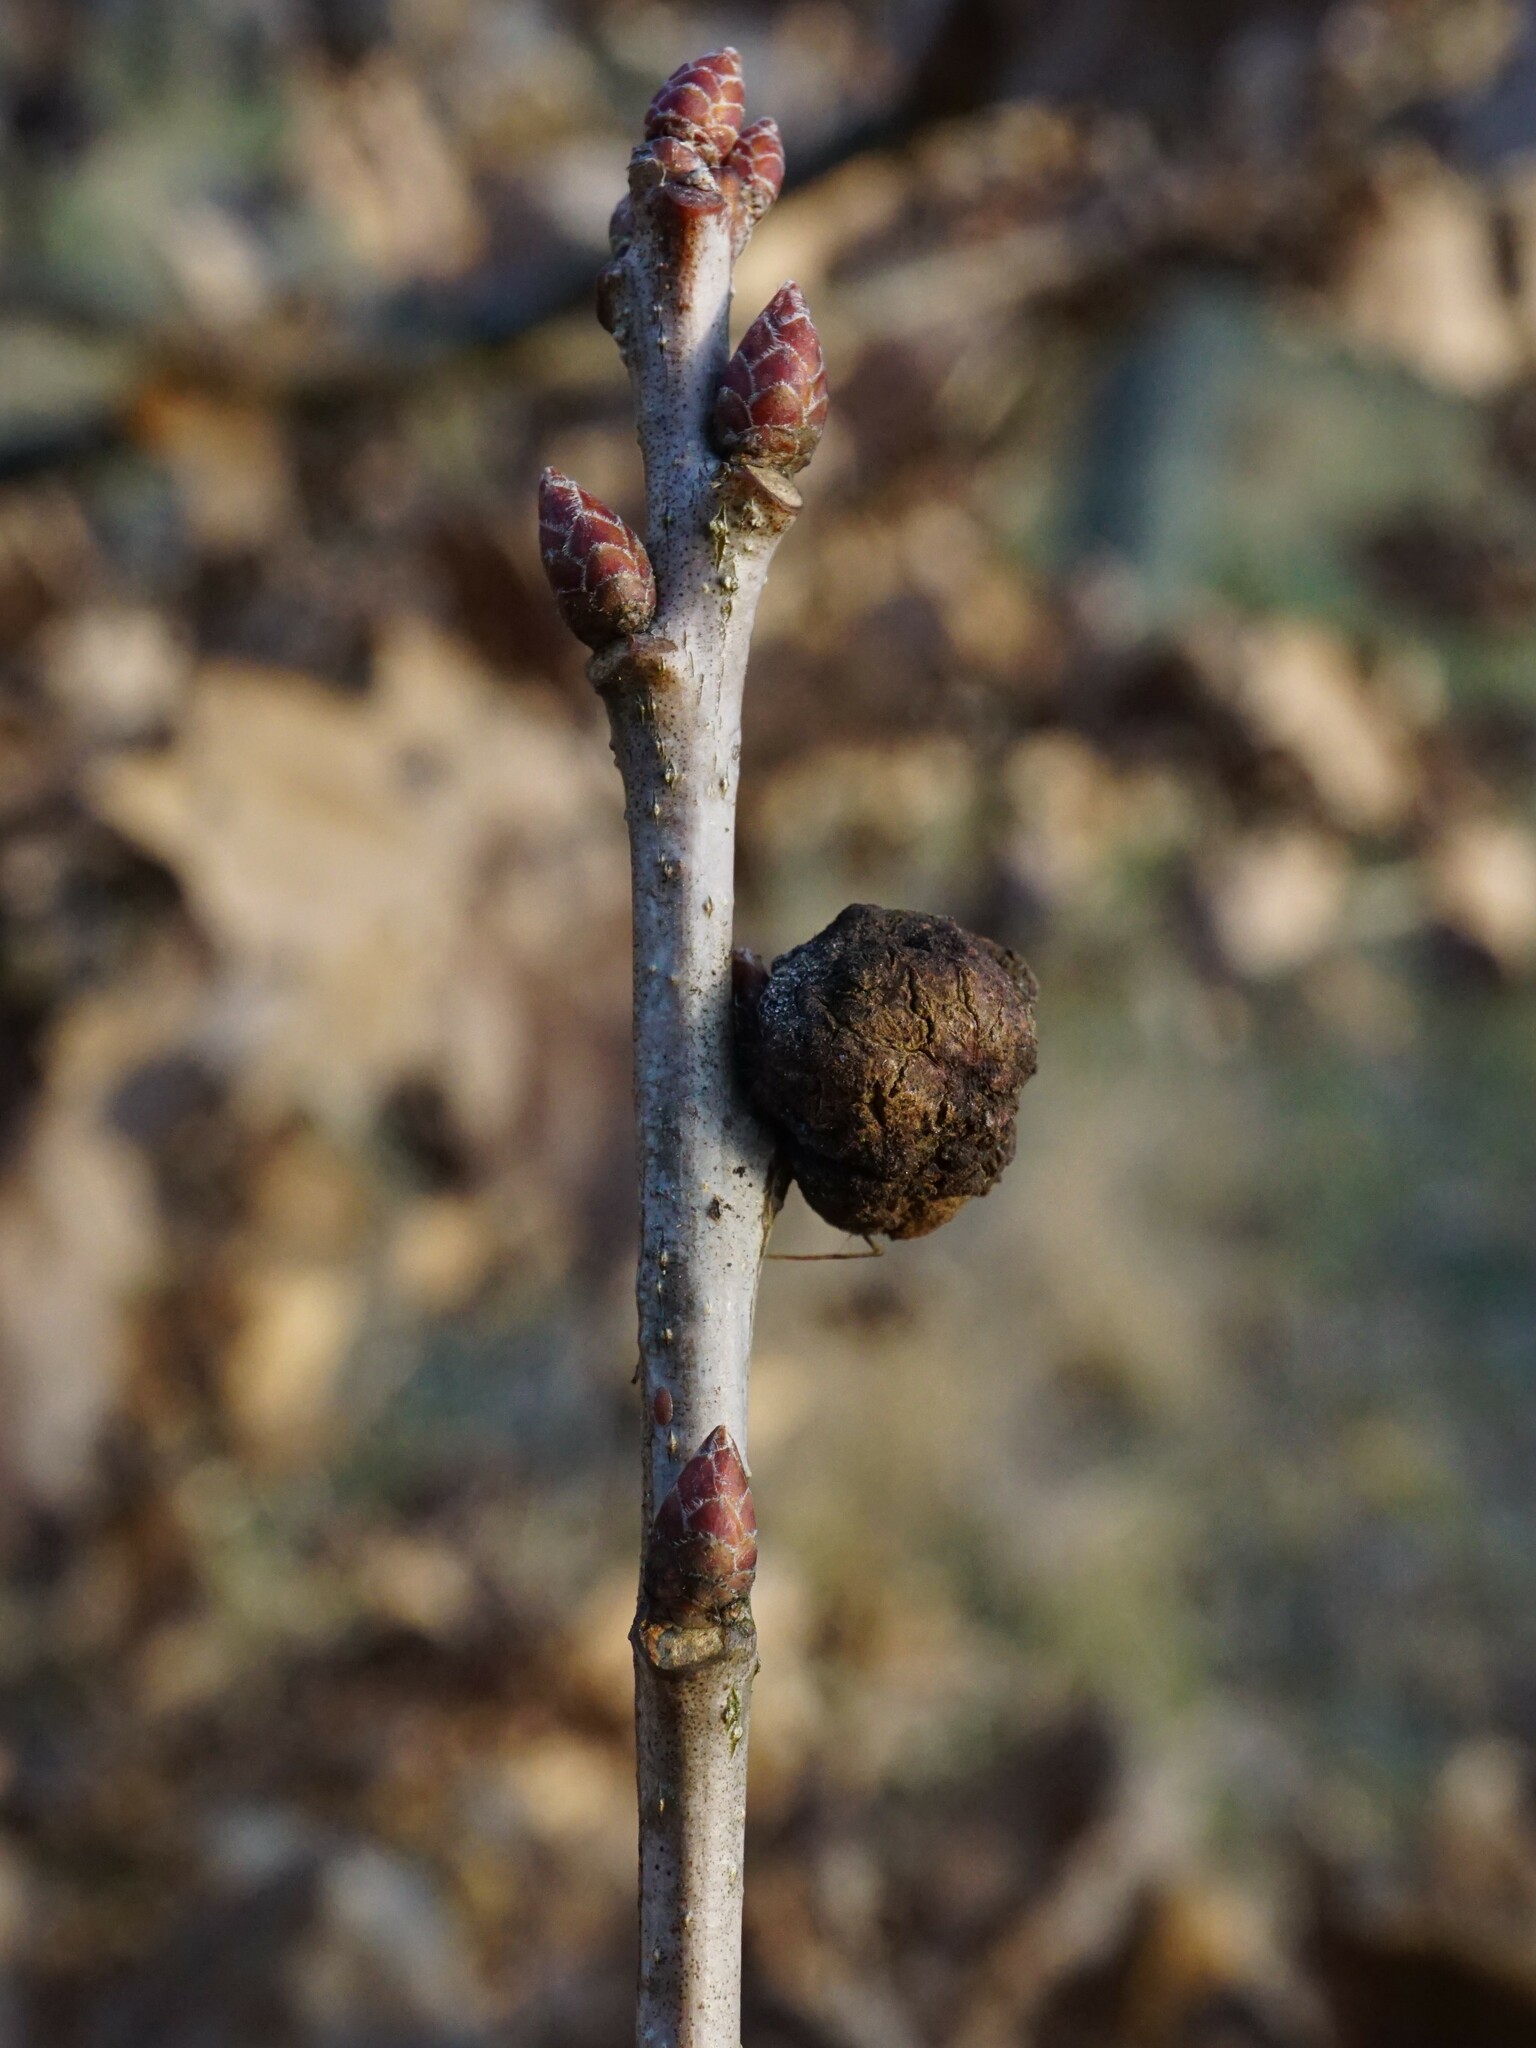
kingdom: Animalia
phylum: Arthropoda
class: Insecta
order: Hymenoptera
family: Cynipidae
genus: Andricus
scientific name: Andricus lignicolus
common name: Cola-nut gall
